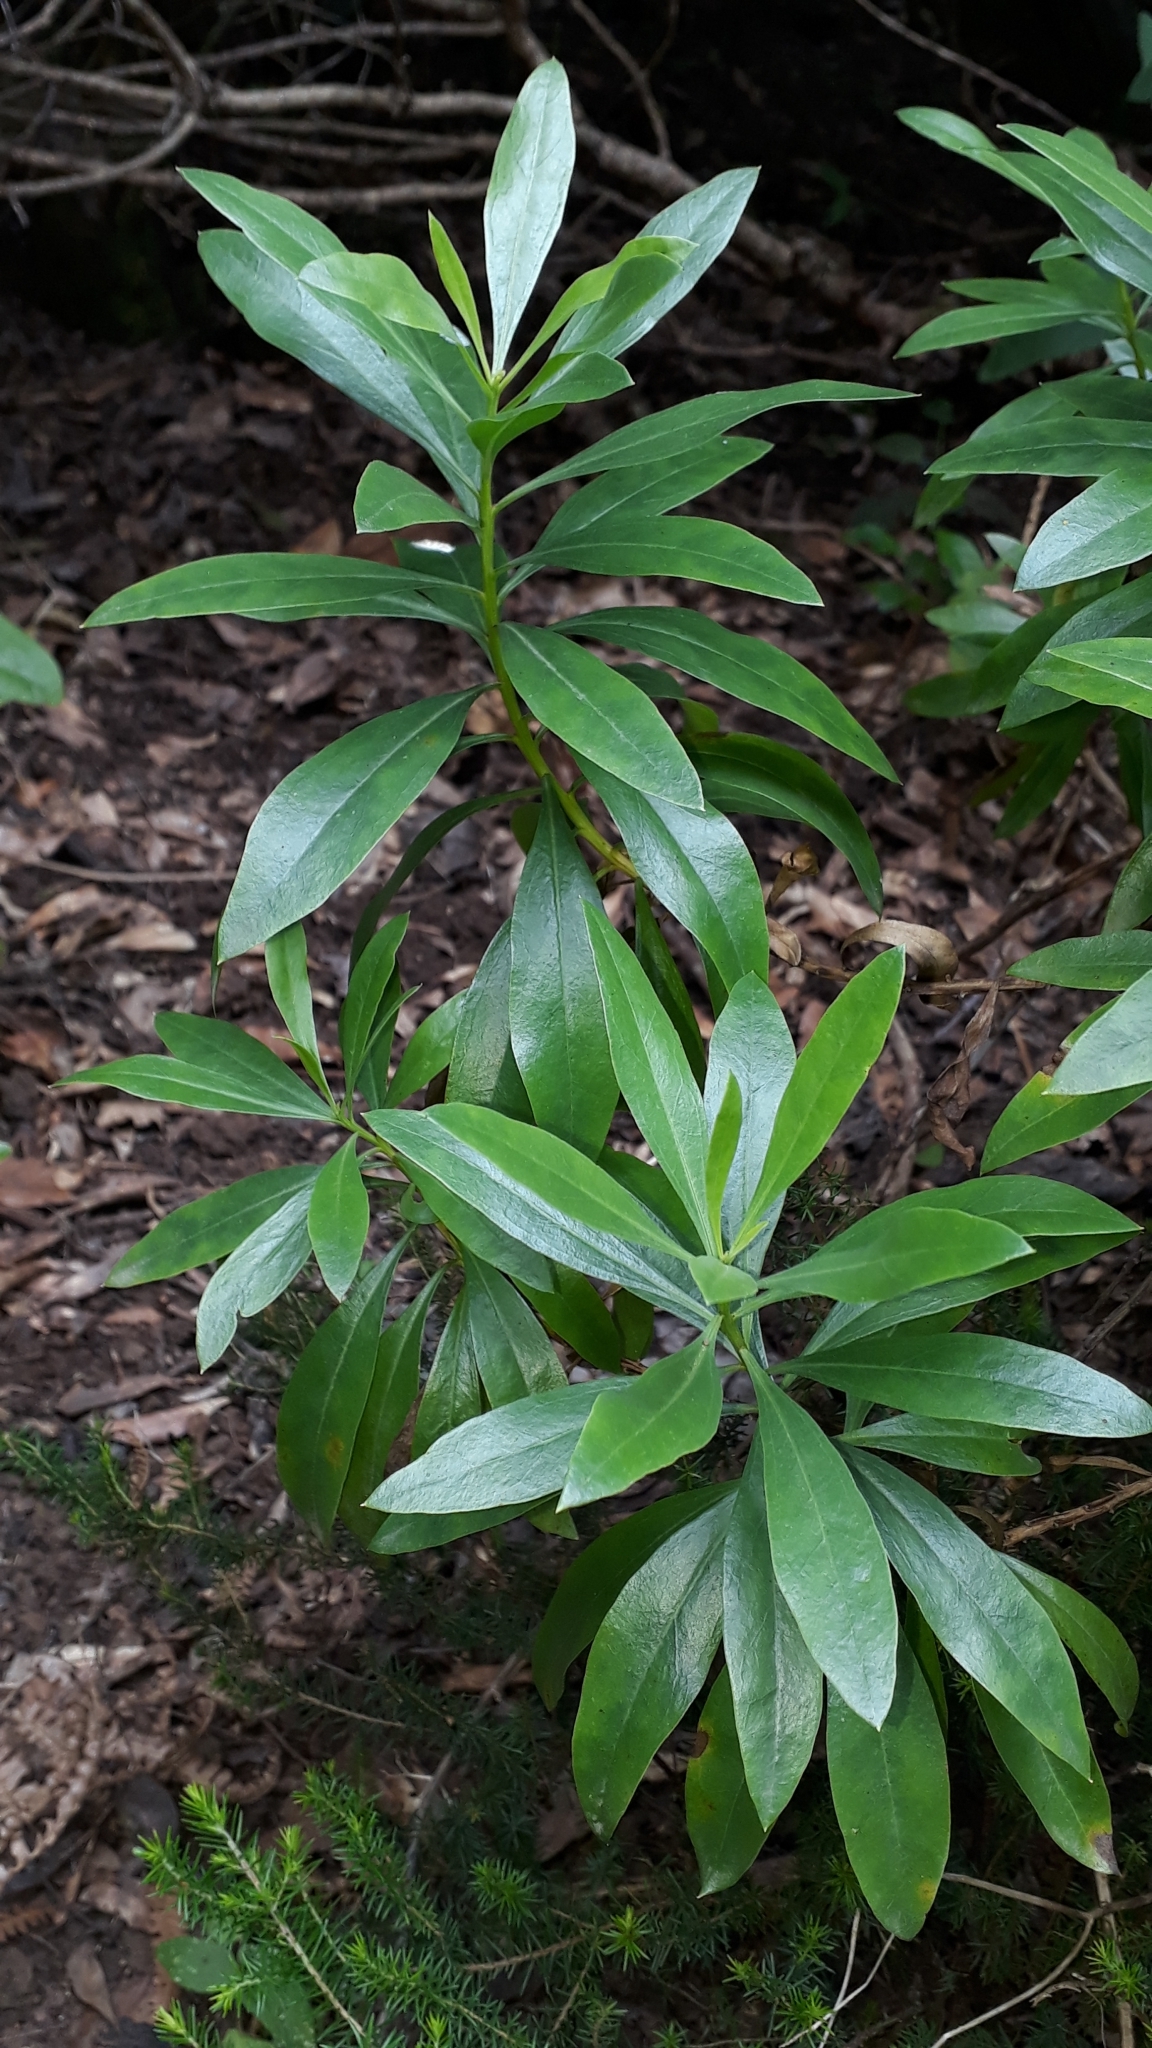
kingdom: Plantae
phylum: Tracheophyta
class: Magnoliopsida
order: Lamiales
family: Plantaginaceae
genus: Globularia
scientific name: Globularia salicina
